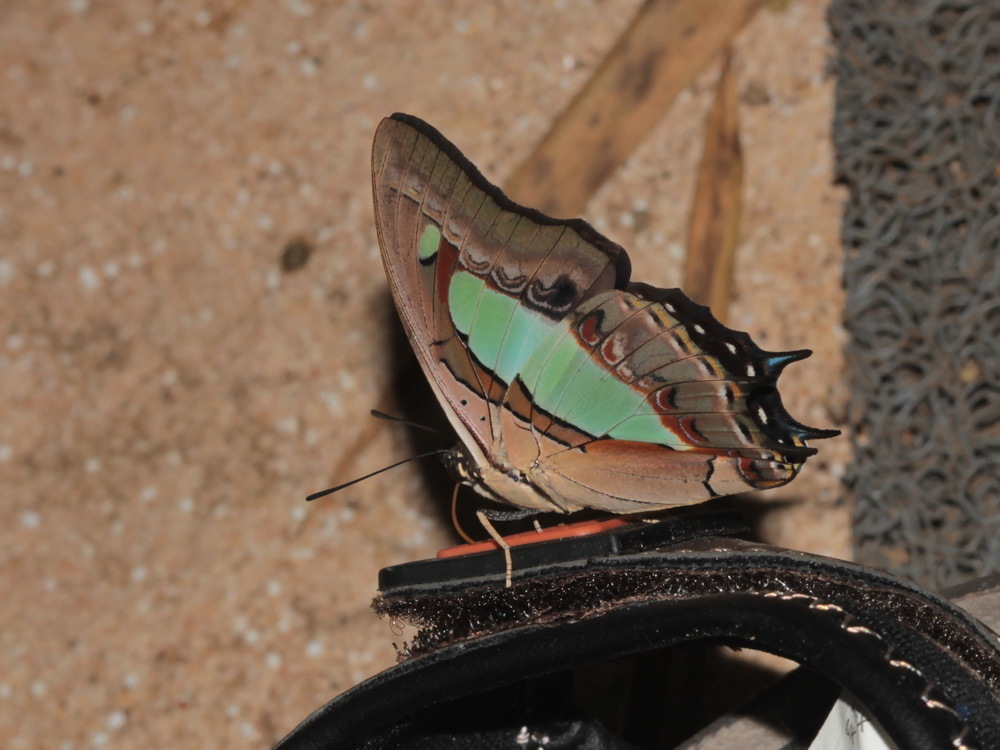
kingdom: Animalia
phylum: Arthropoda
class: Insecta
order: Lepidoptera
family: Nymphalidae
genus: Polyura
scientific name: Polyura athamas
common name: Common nawab
